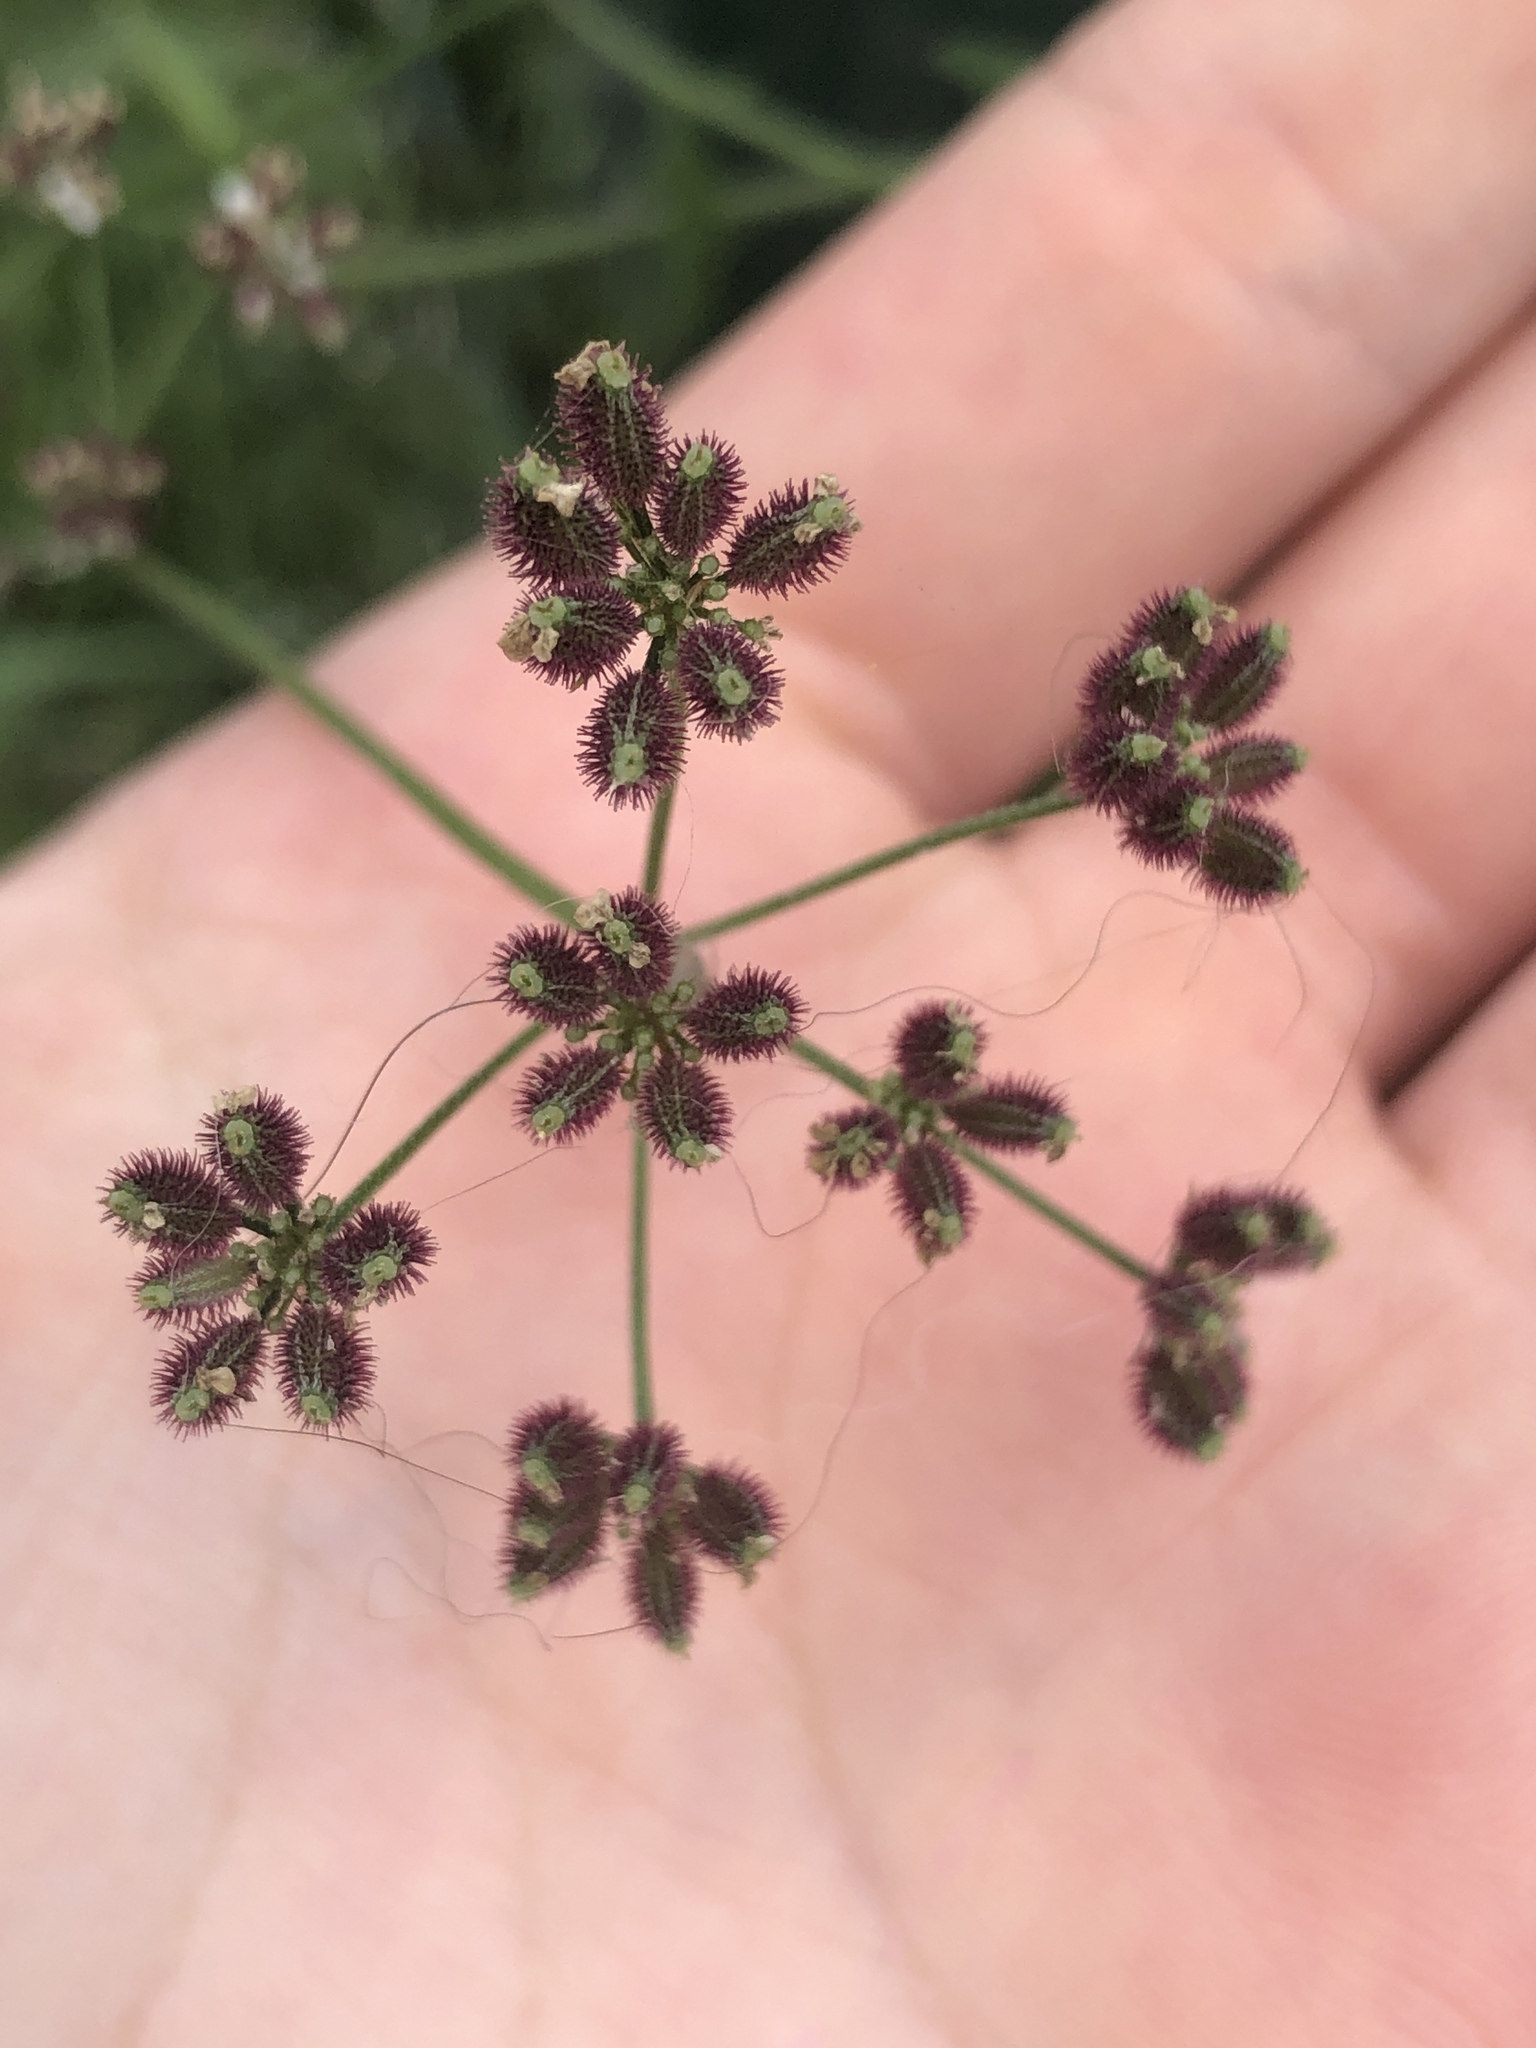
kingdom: Plantae
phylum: Tracheophyta
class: Magnoliopsida
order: Apiales
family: Apiaceae
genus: Torilis
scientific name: Torilis arvensis
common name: Spreading hedge-parsley
